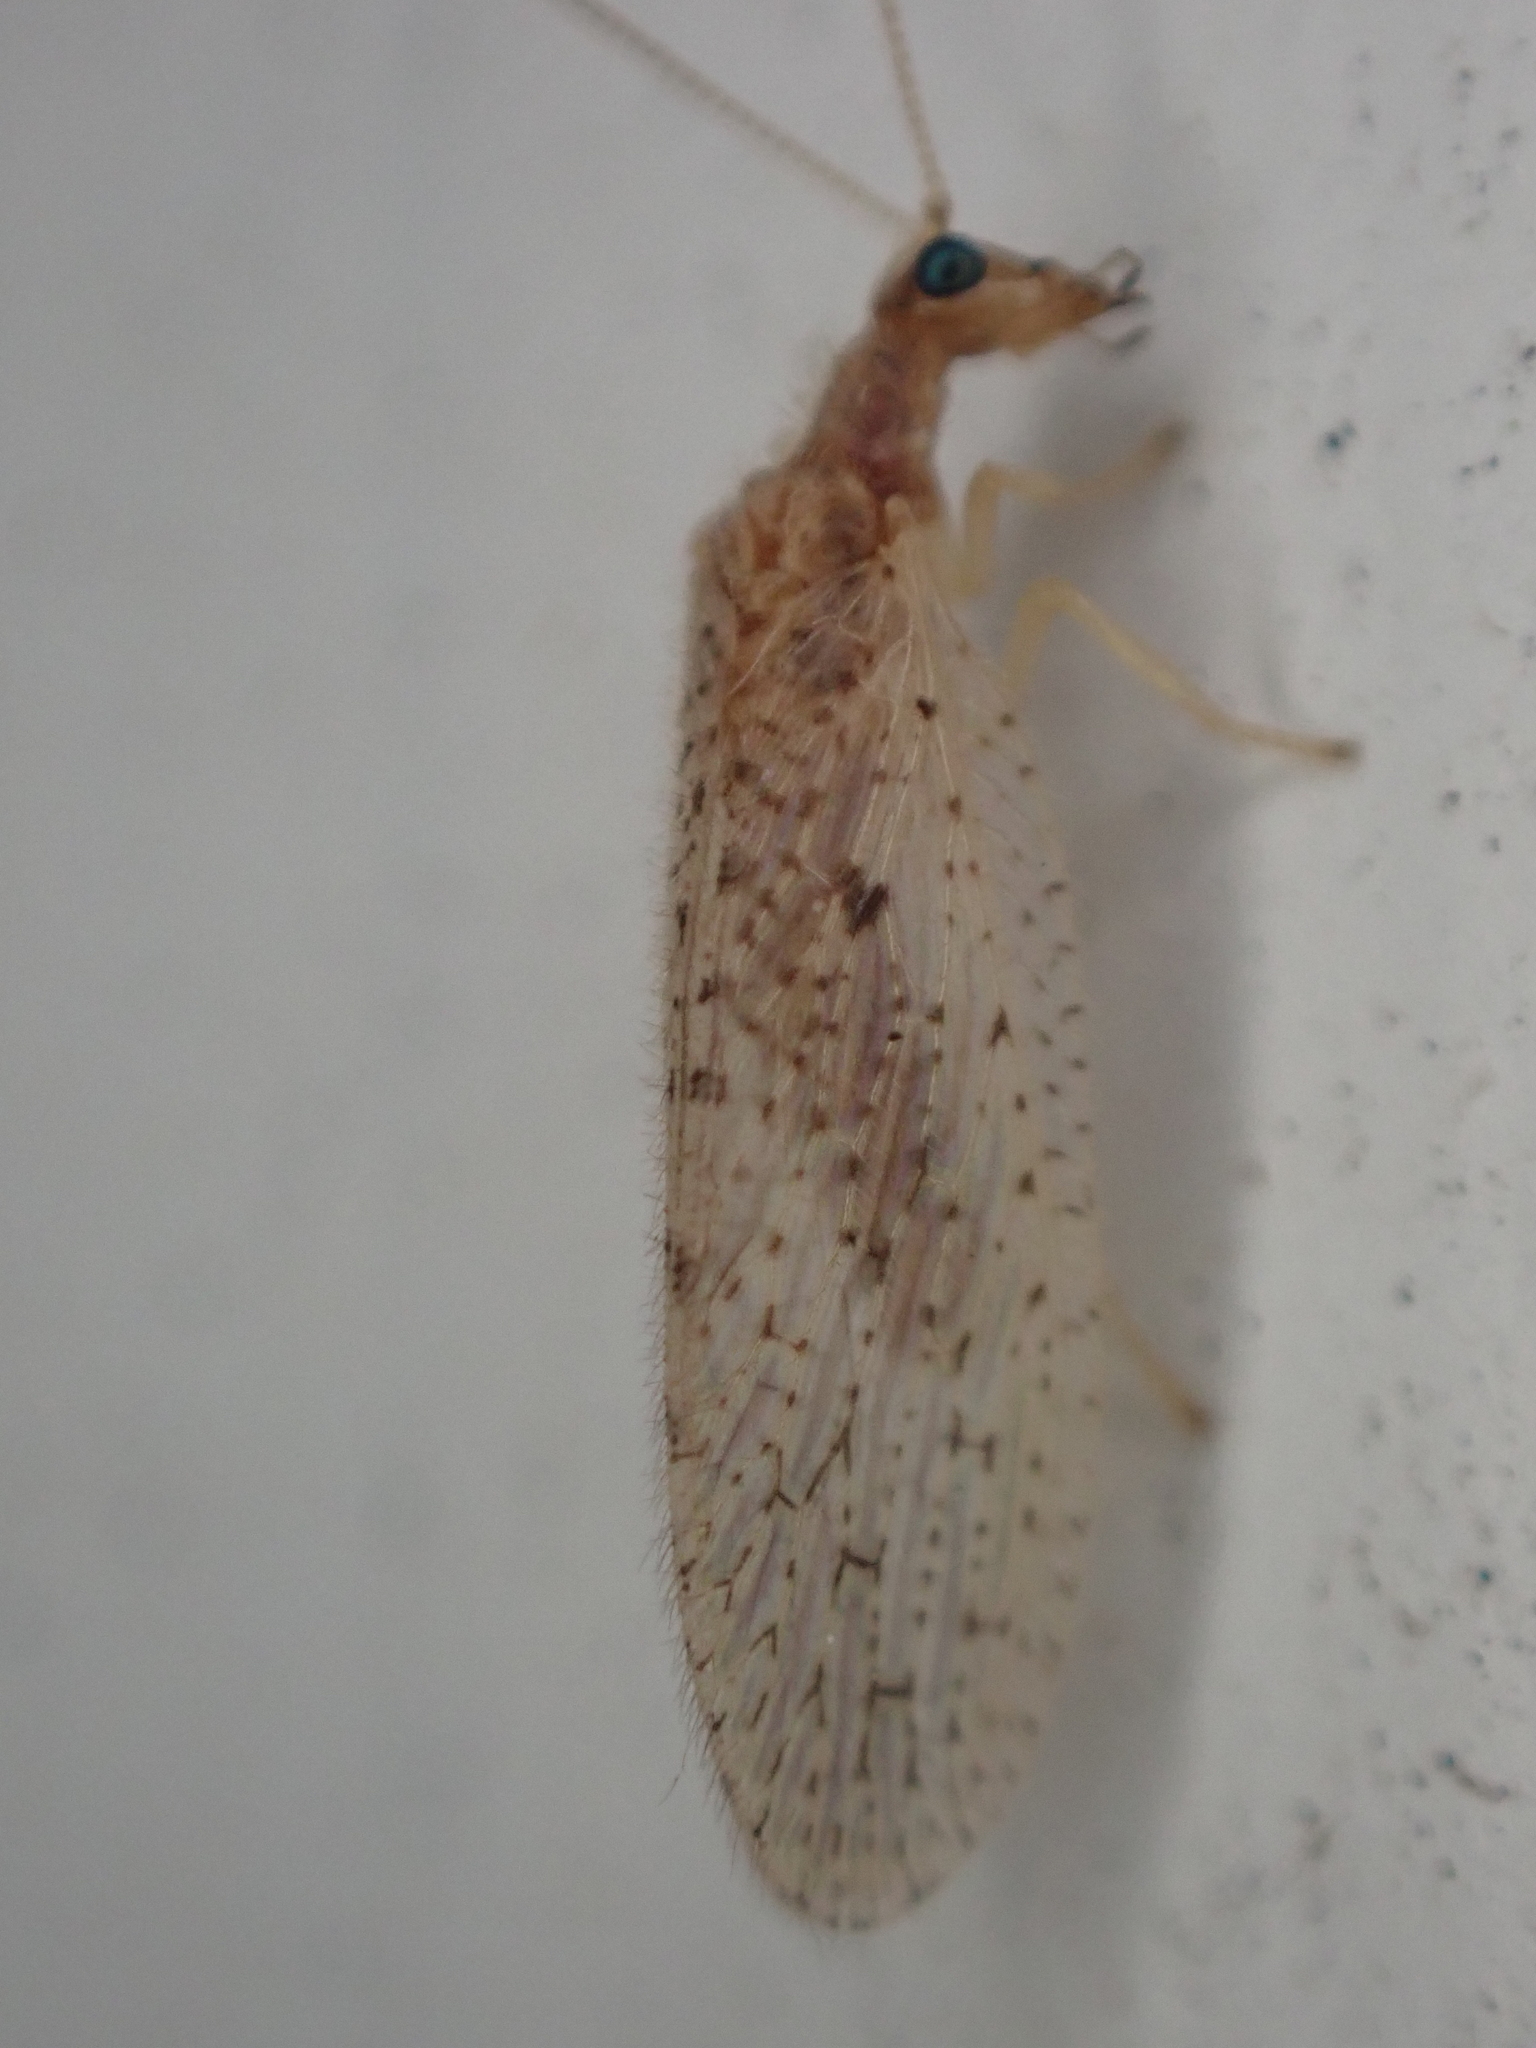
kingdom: Animalia
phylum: Arthropoda
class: Insecta
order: Neuroptera
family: Hemerobiidae
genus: Micromus
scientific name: Micromus subanticus
